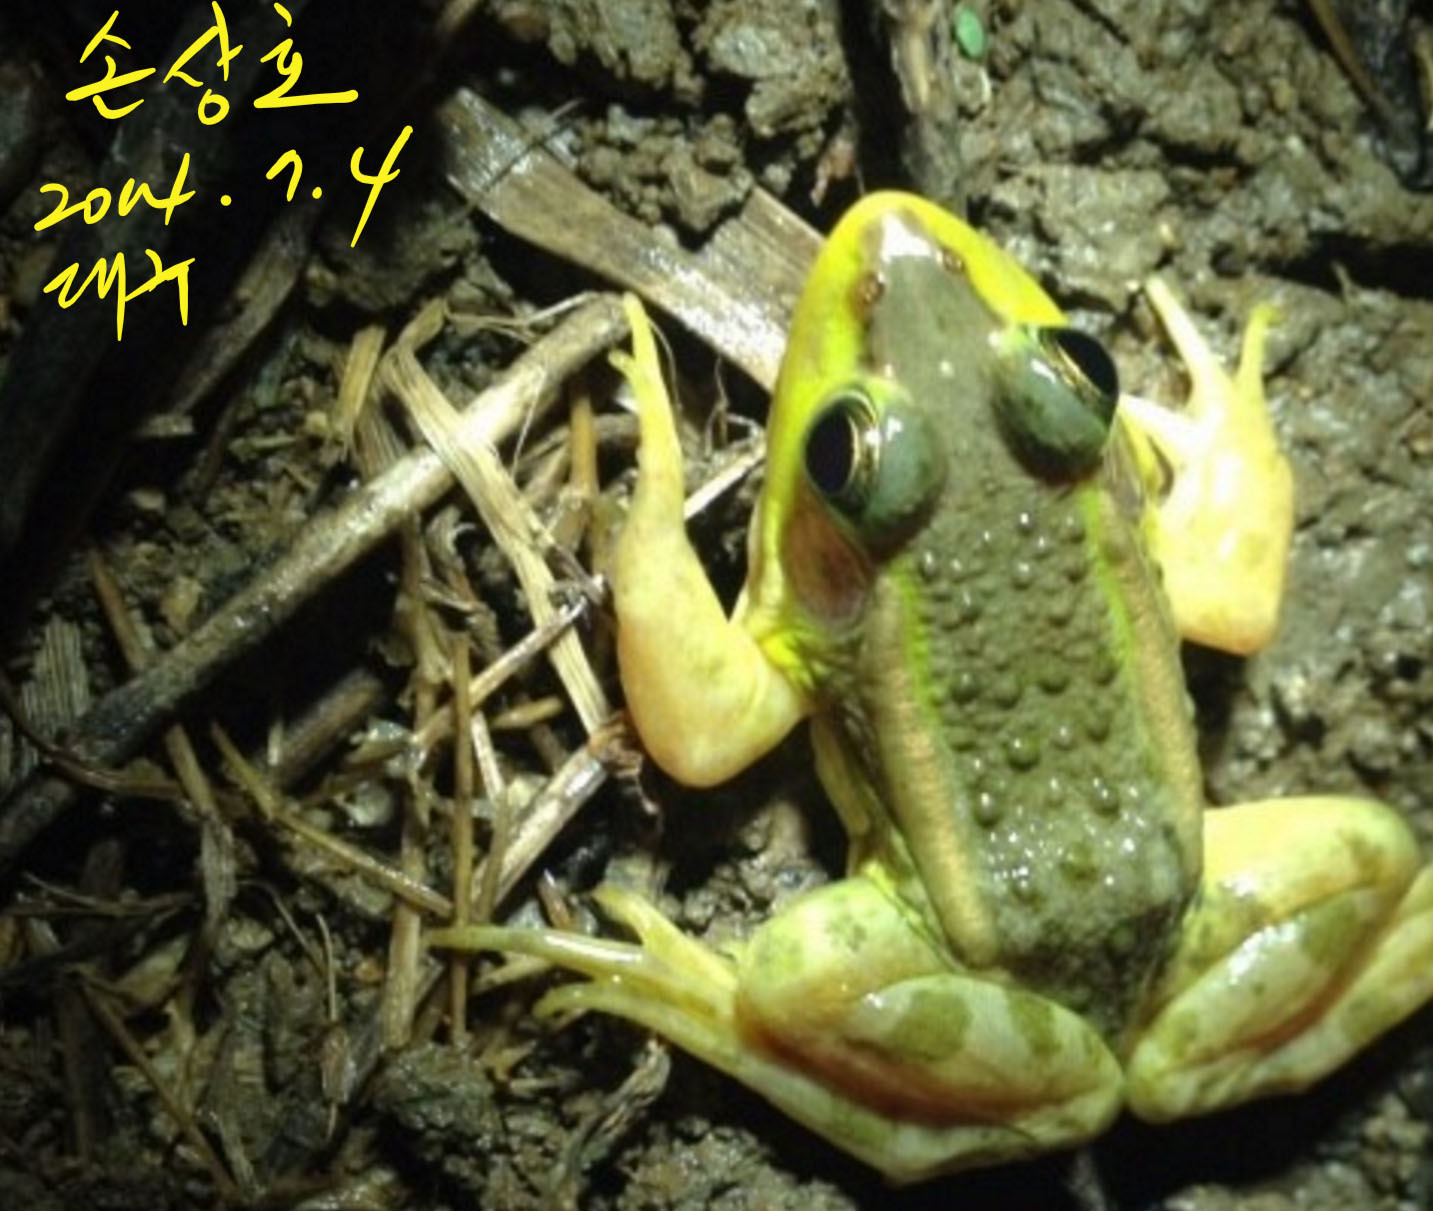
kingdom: Animalia
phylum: Chordata
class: Amphibia
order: Anura
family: Ranidae
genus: Pelophylax
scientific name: Pelophylax chosenicus
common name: Gold-spotted pond frog
